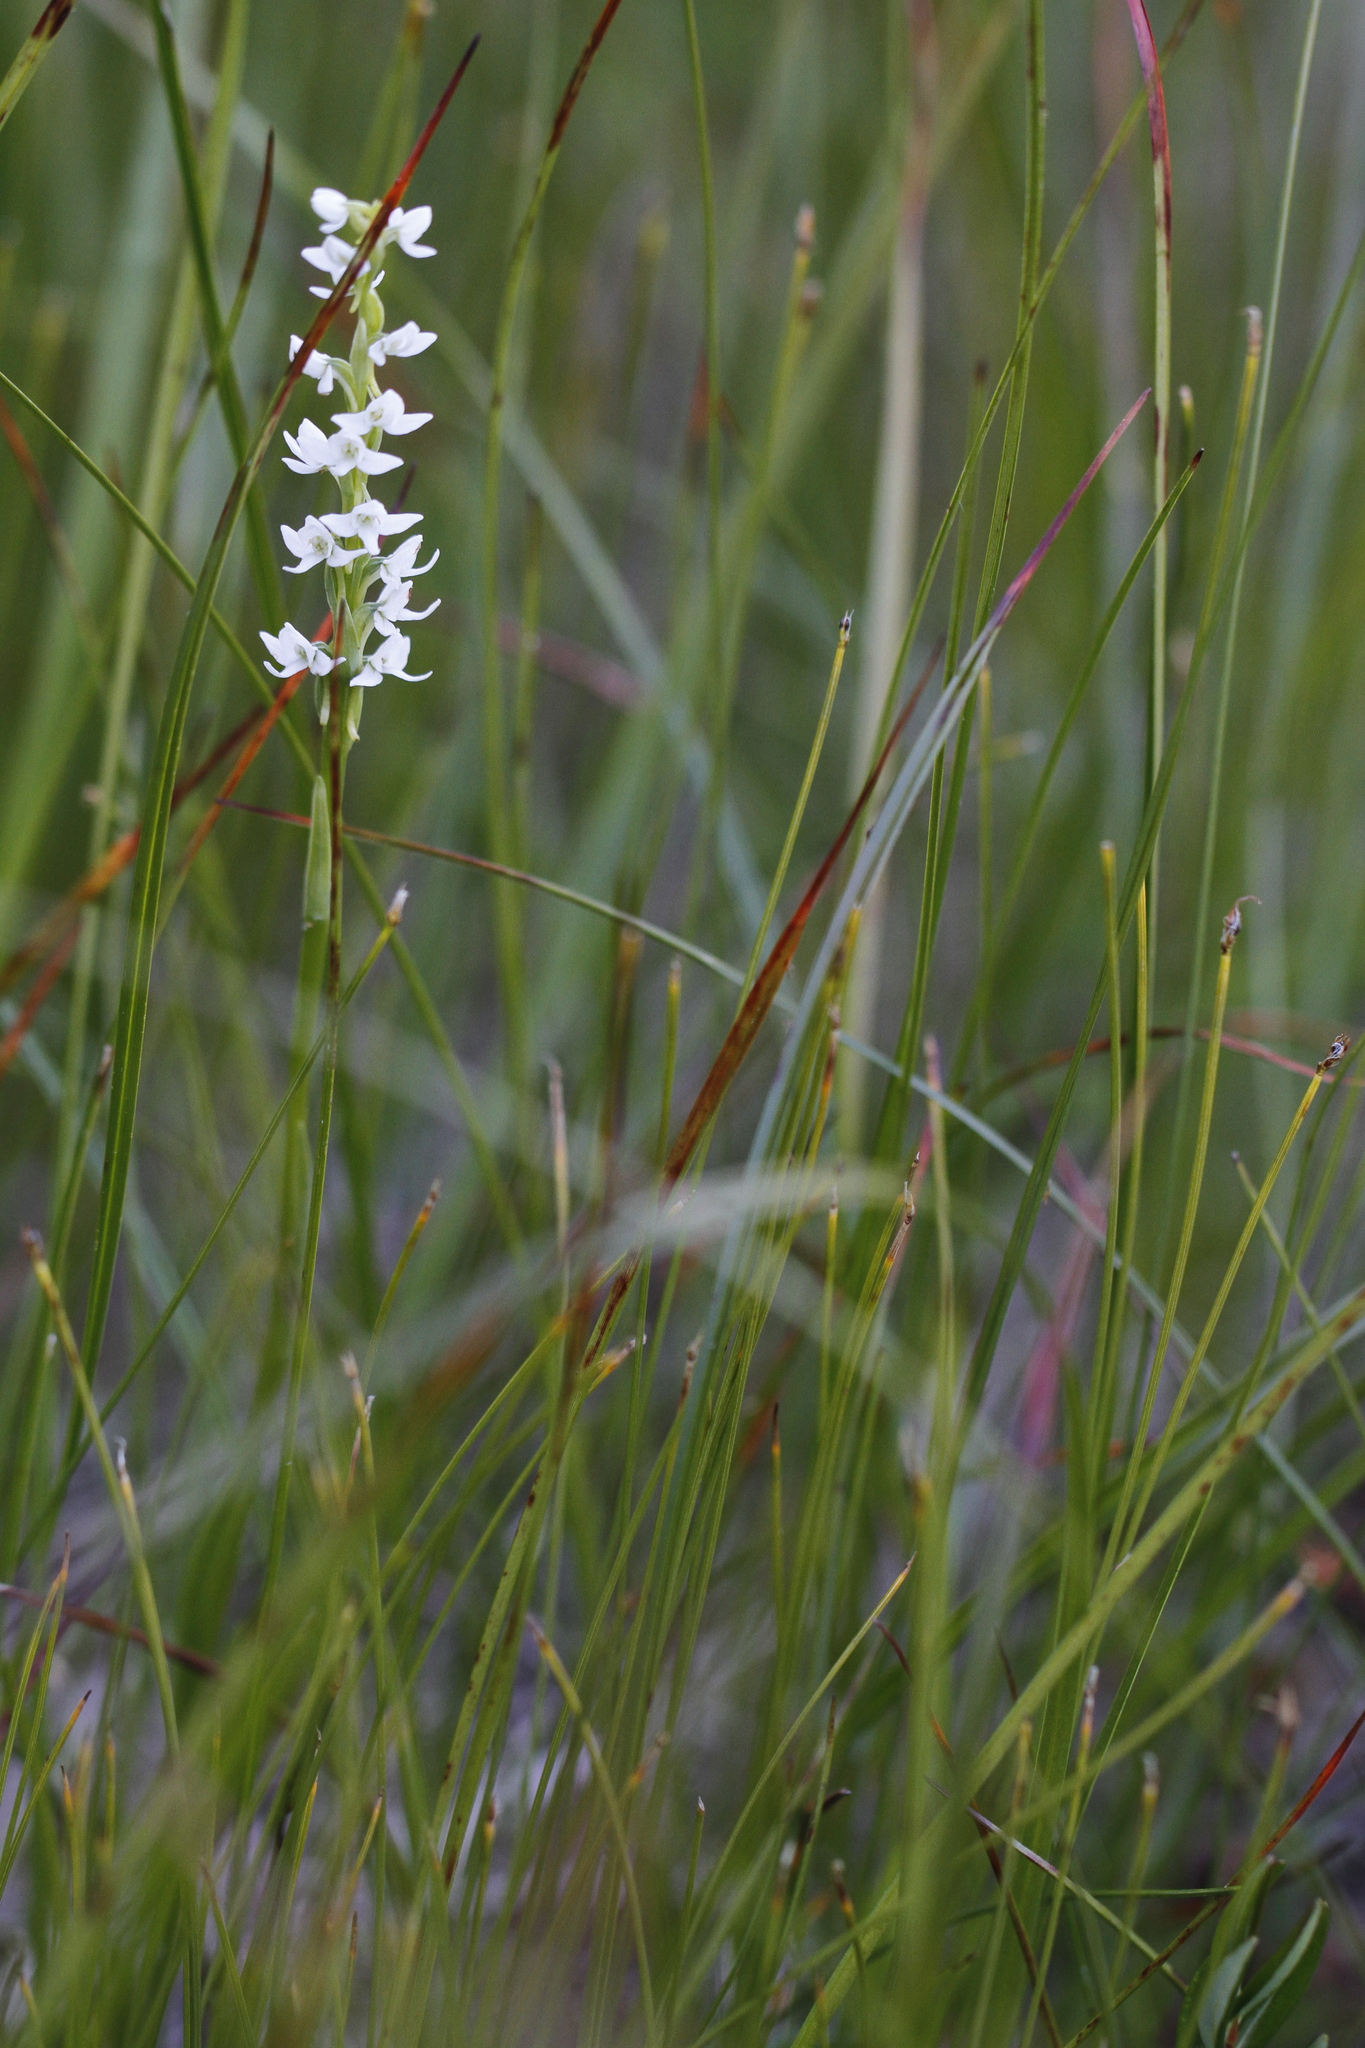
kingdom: Plantae
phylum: Tracheophyta
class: Liliopsida
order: Asparagales
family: Orchidaceae
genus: Platanthera
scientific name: Platanthera dilatata
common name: Bog candles
